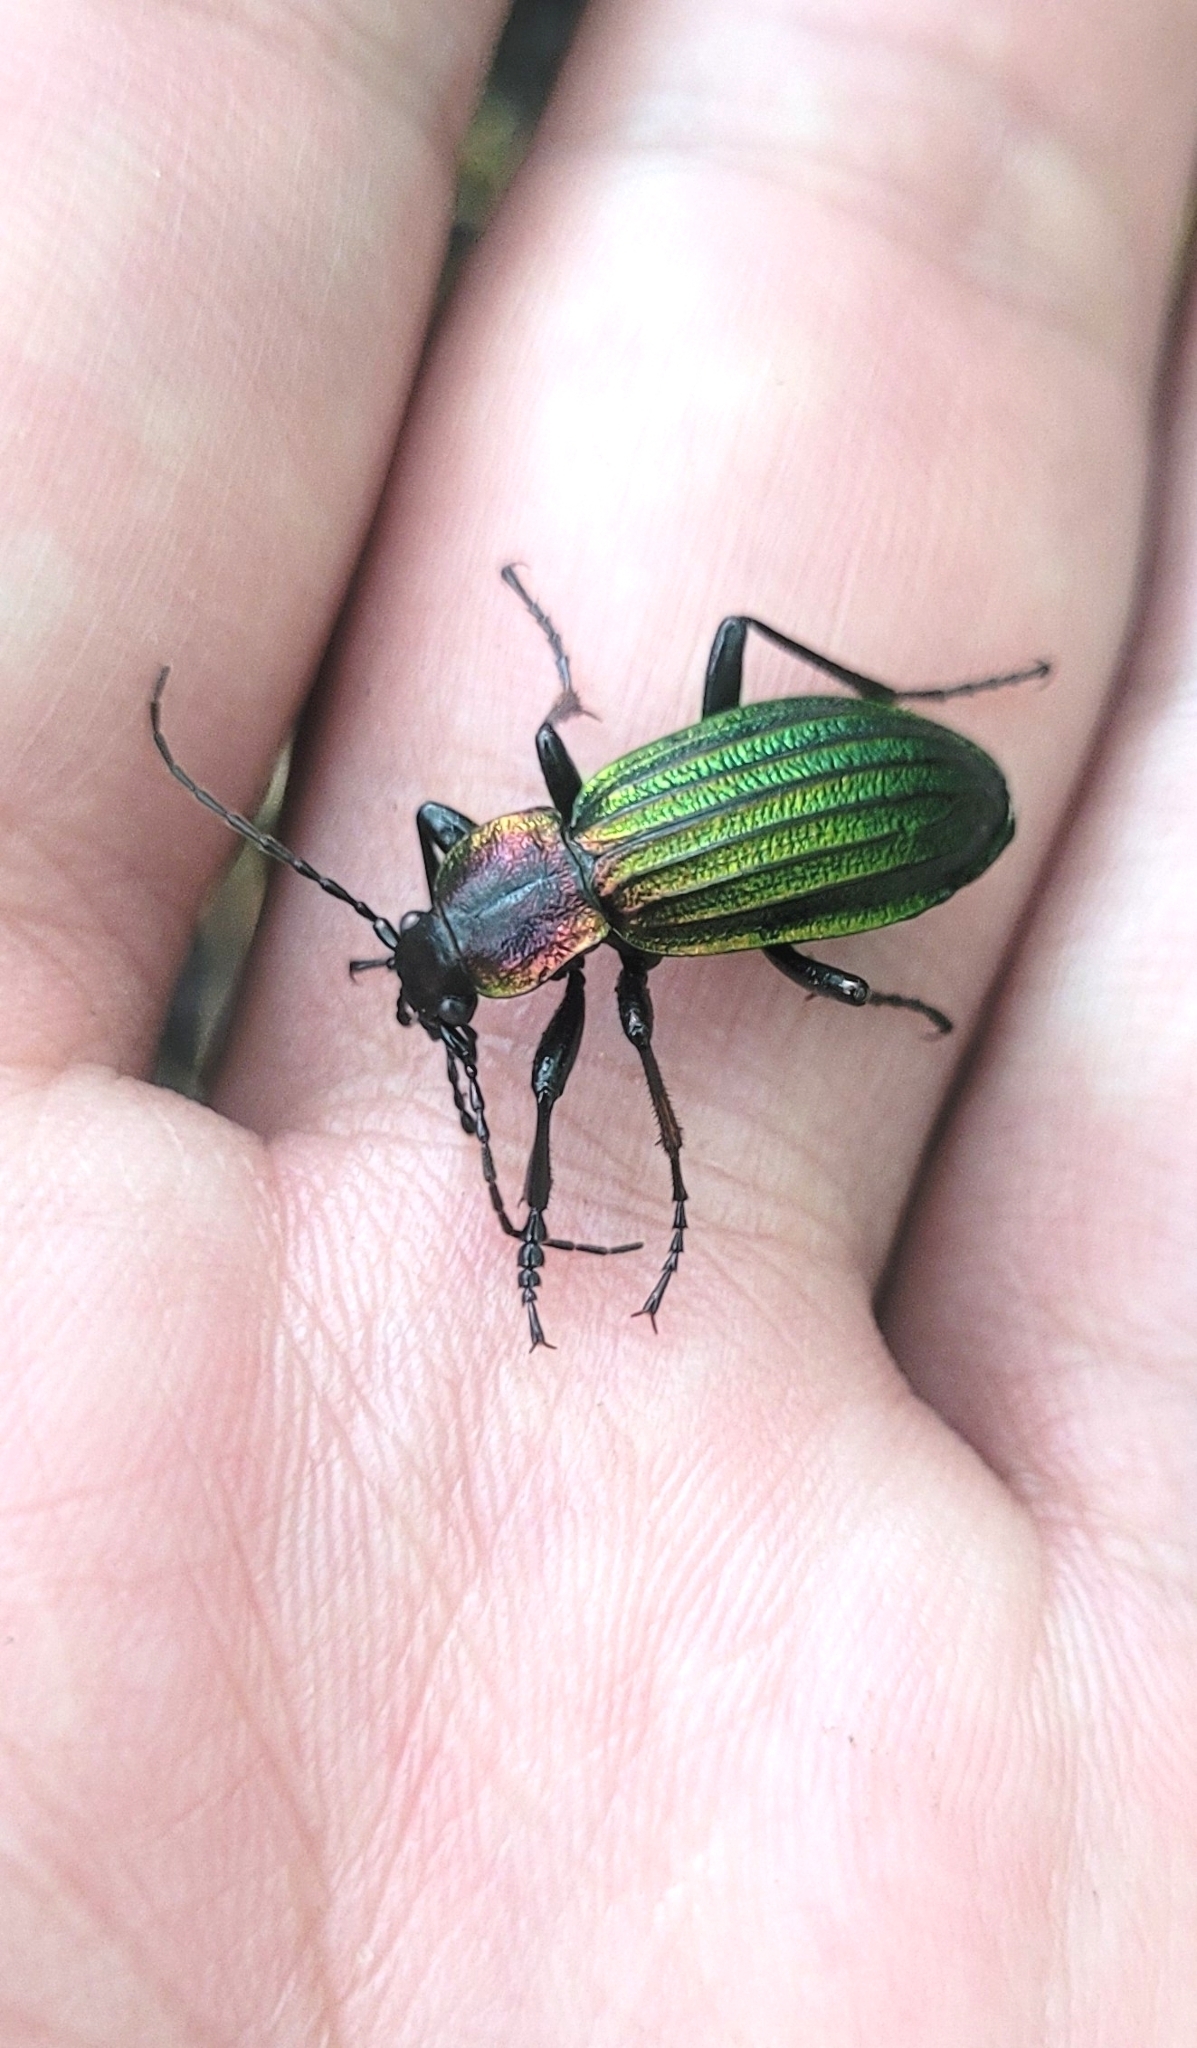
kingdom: Animalia
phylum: Arthropoda
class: Insecta
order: Coleoptera
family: Carabidae
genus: Carabus
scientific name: Carabus kolbei
